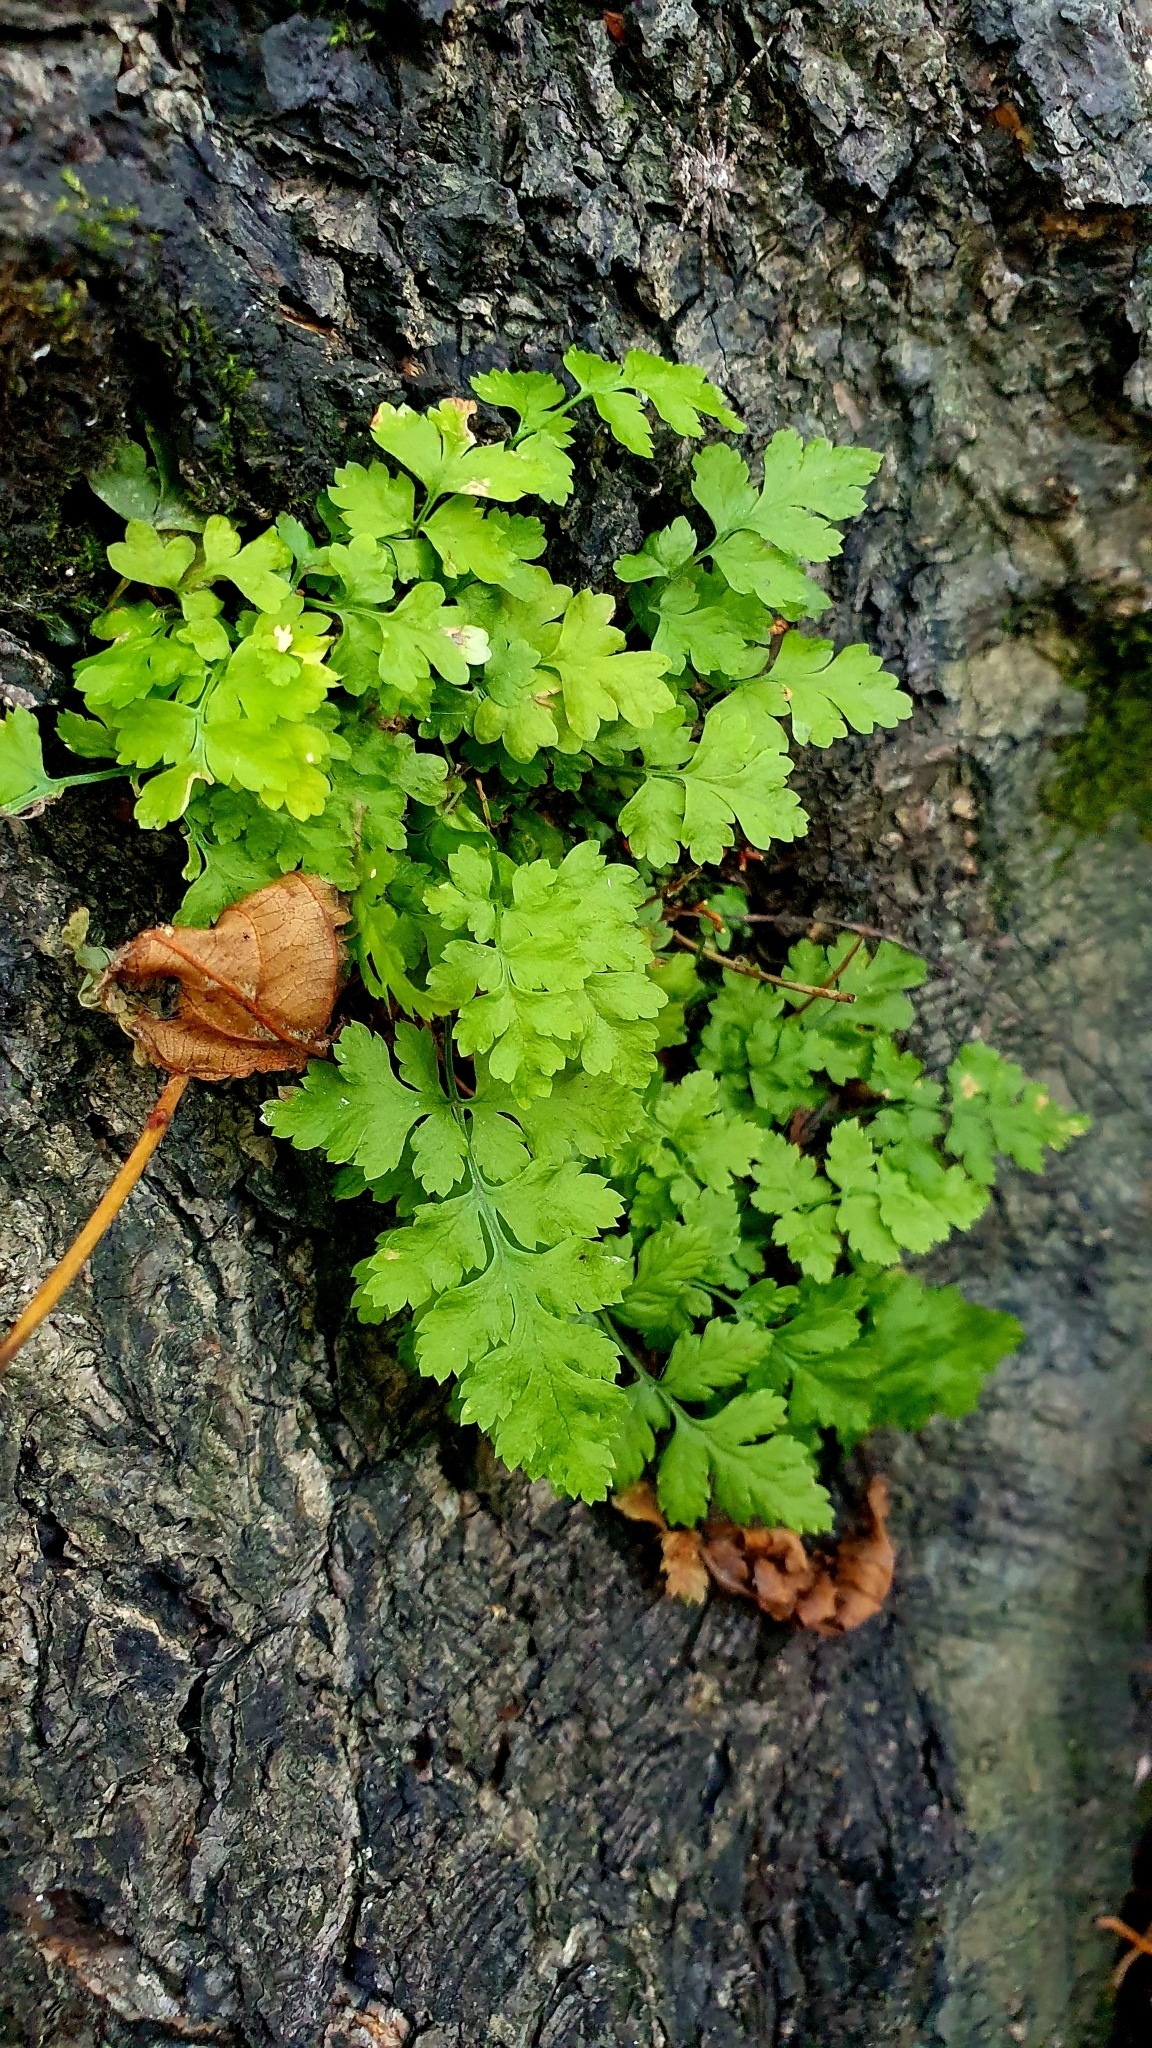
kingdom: Plantae
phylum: Tracheophyta
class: Polypodiopsida
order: Polypodiales
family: Cystopteridaceae
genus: Cystopteris
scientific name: Cystopteris fragilis
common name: Brittle bladder fern
